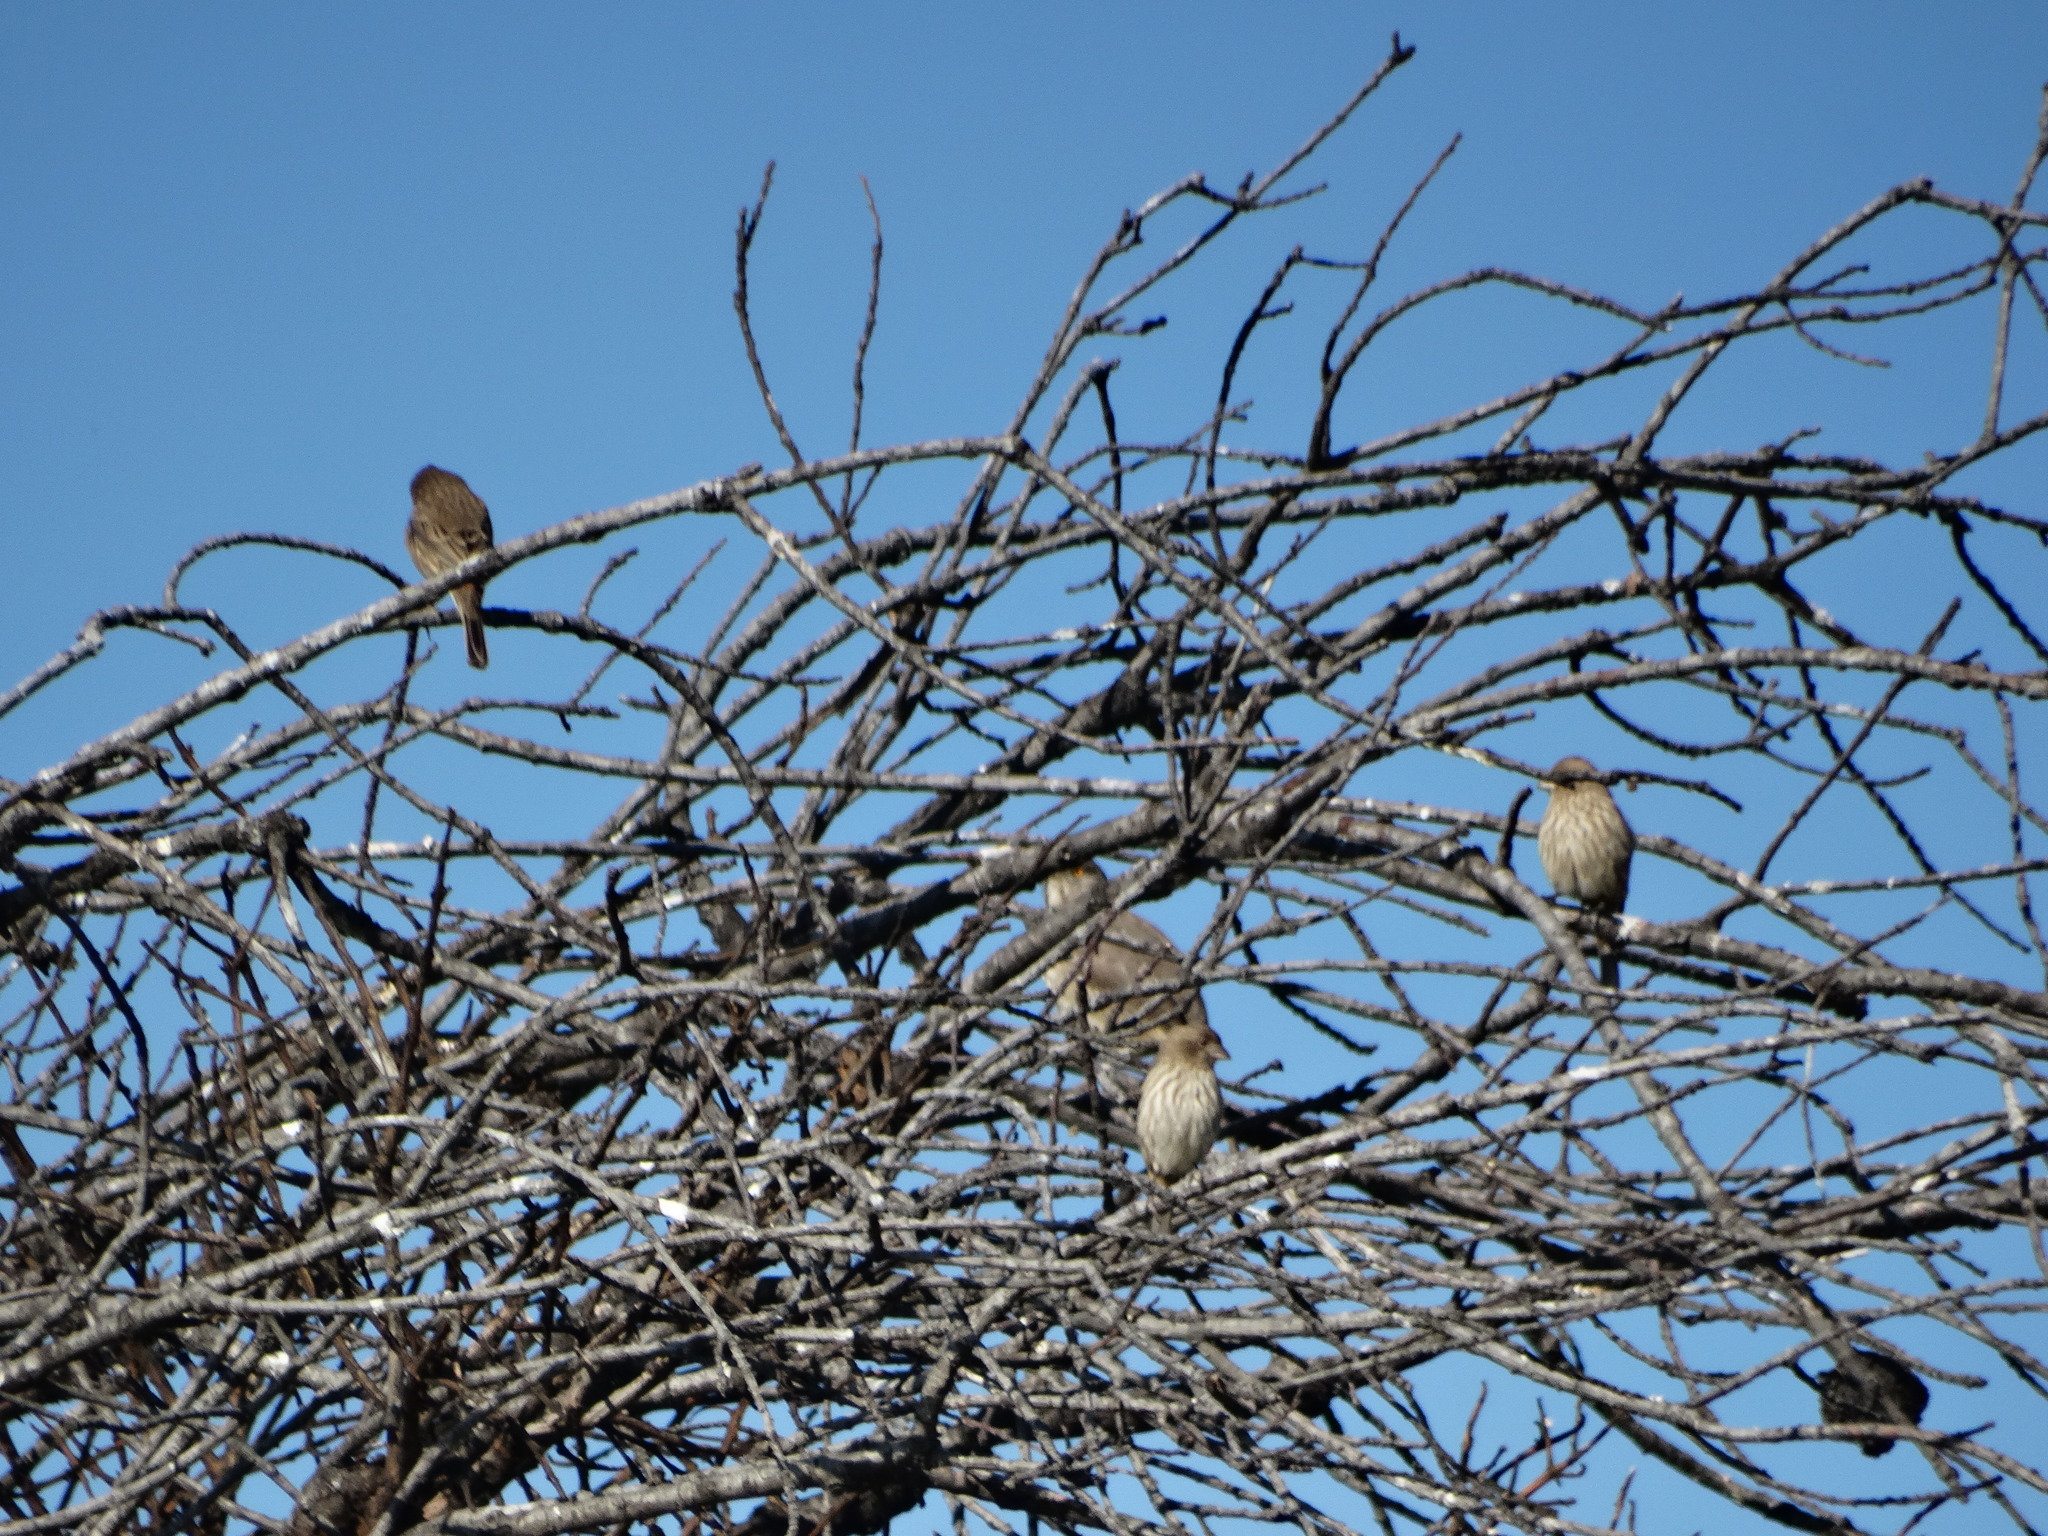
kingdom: Animalia
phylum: Chordata
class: Aves
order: Passeriformes
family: Mimidae
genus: Toxostoma
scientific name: Toxostoma curvirostre
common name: Curve-billed thrasher
